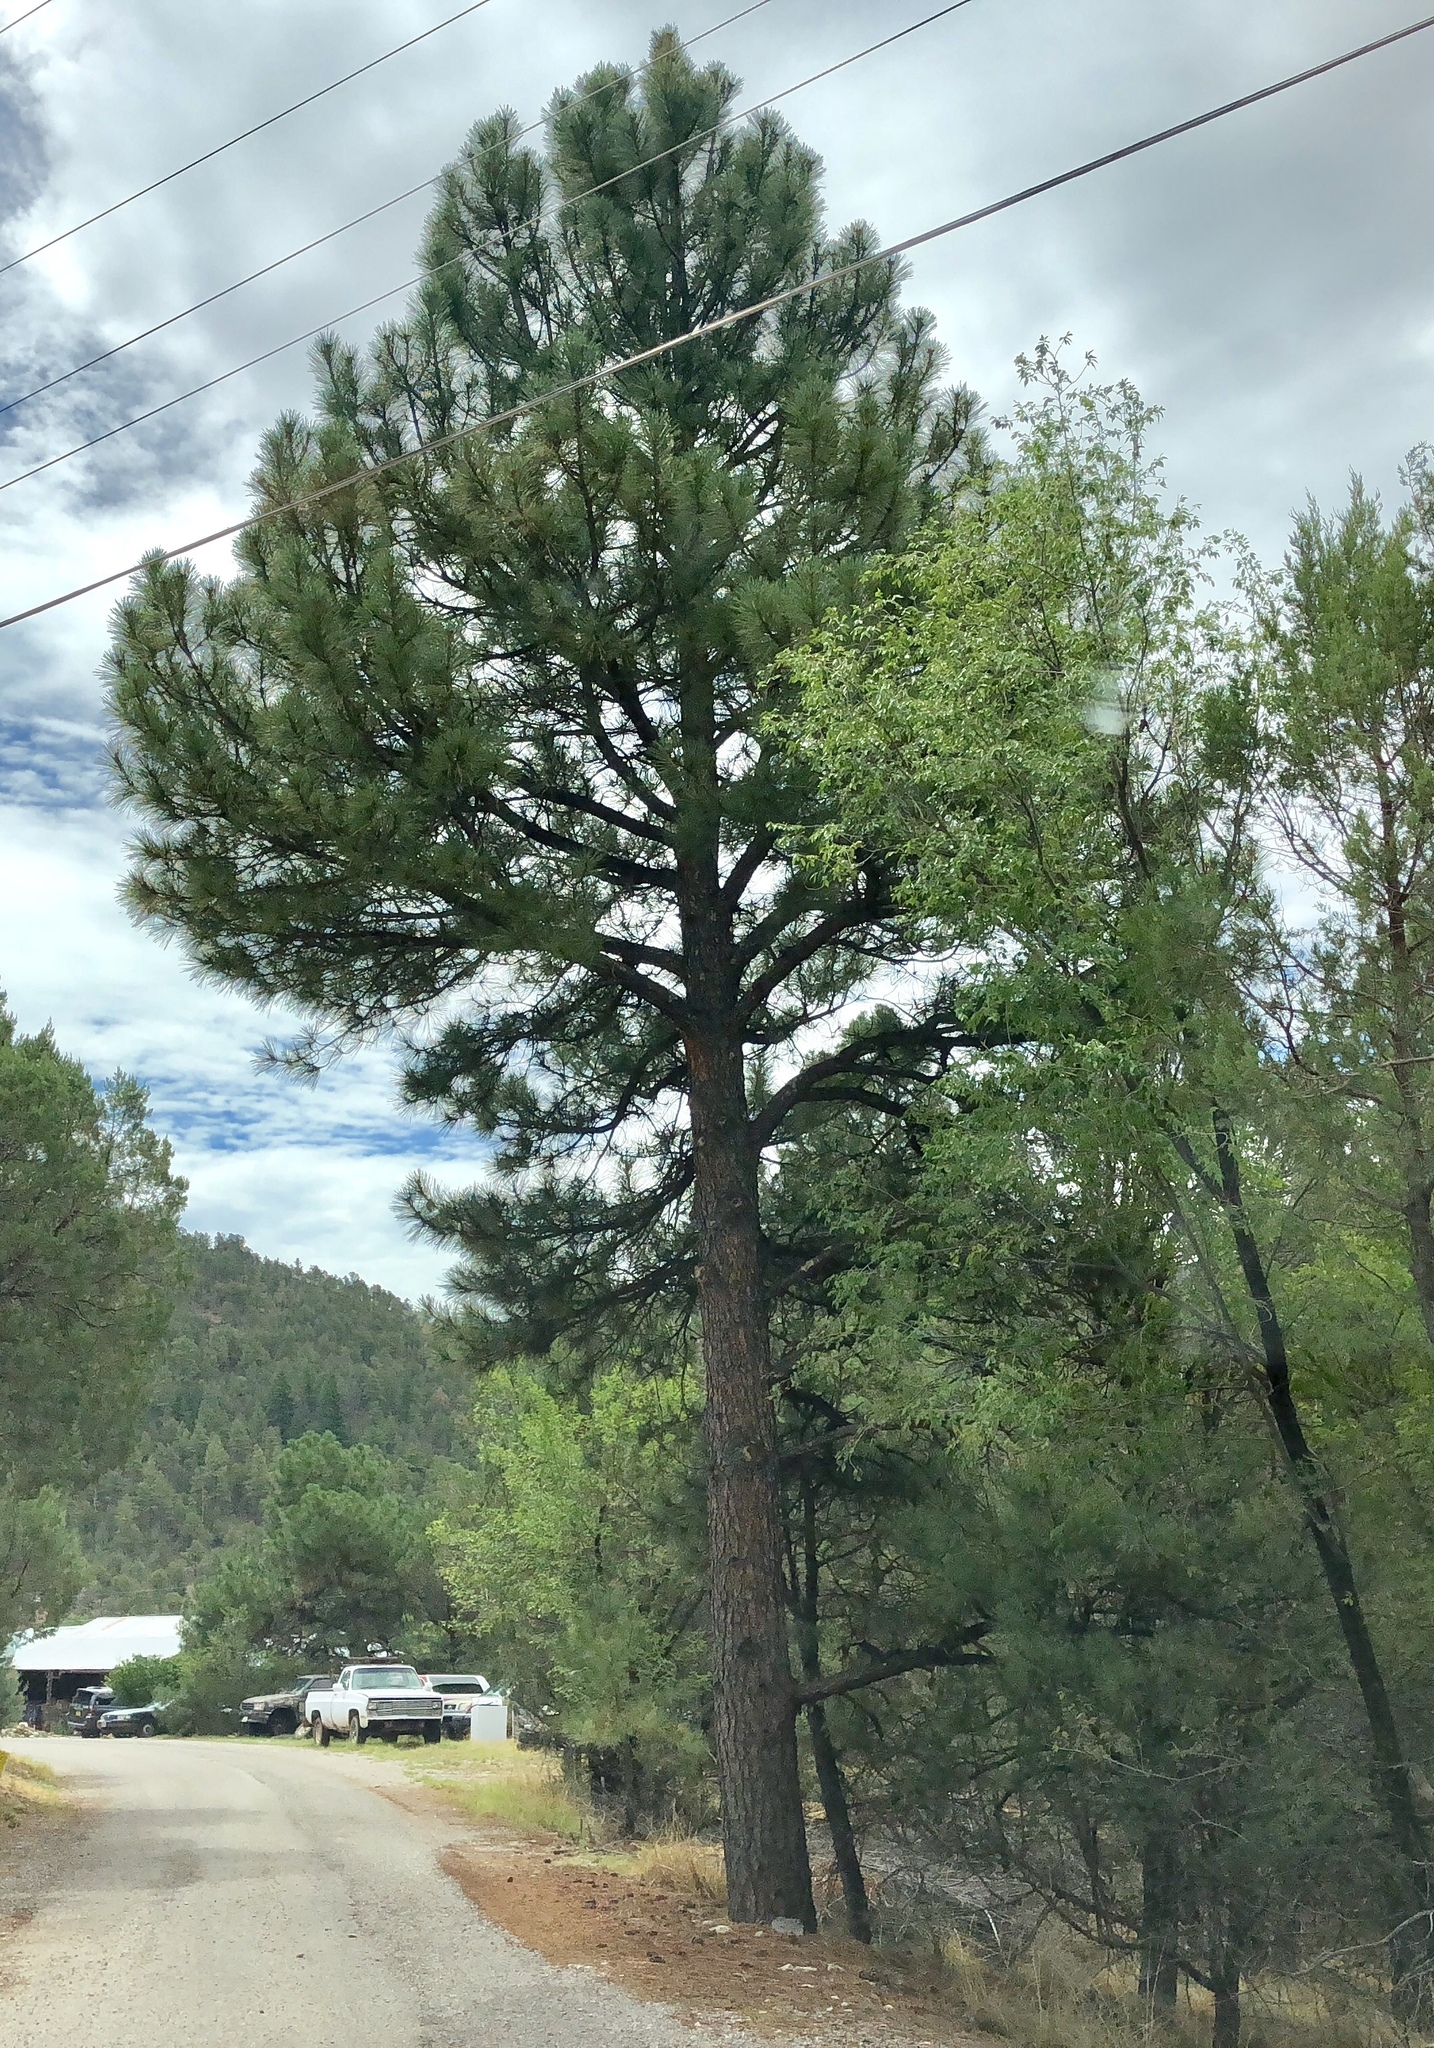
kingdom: Plantae
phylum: Tracheophyta
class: Pinopsida
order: Pinales
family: Pinaceae
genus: Pinus
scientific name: Pinus ponderosa
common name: Western yellow-pine
